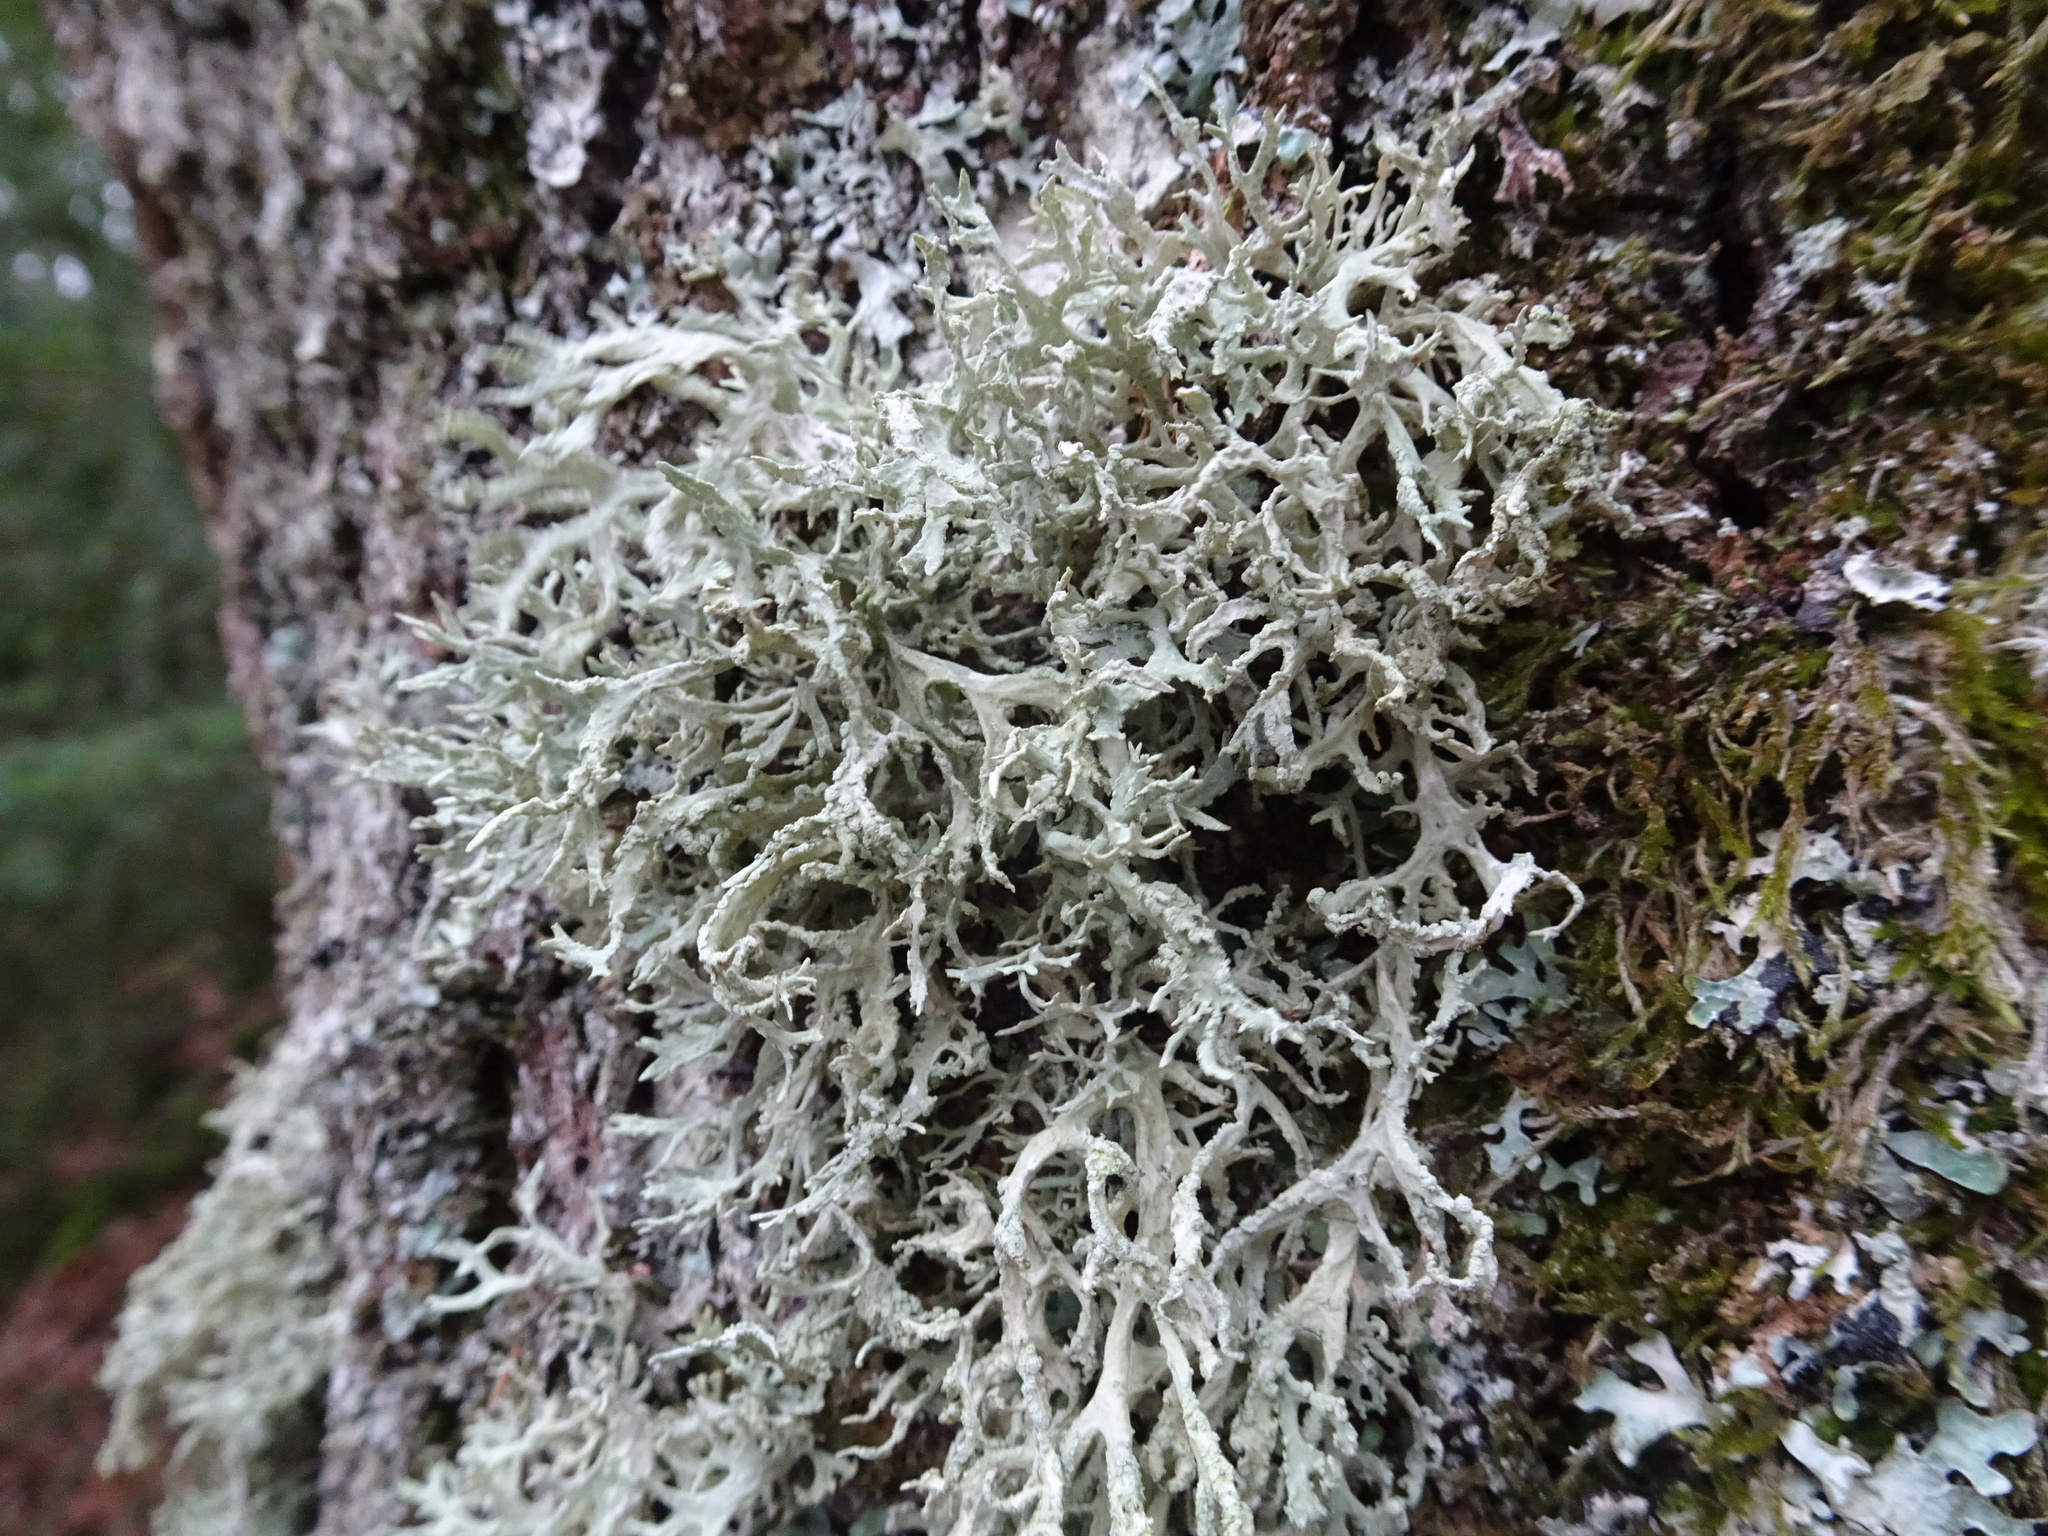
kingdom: Fungi
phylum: Ascomycota
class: Lecanoromycetes
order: Lecanorales
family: Parmeliaceae
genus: Evernia
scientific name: Evernia prunastri
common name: Oak moss
